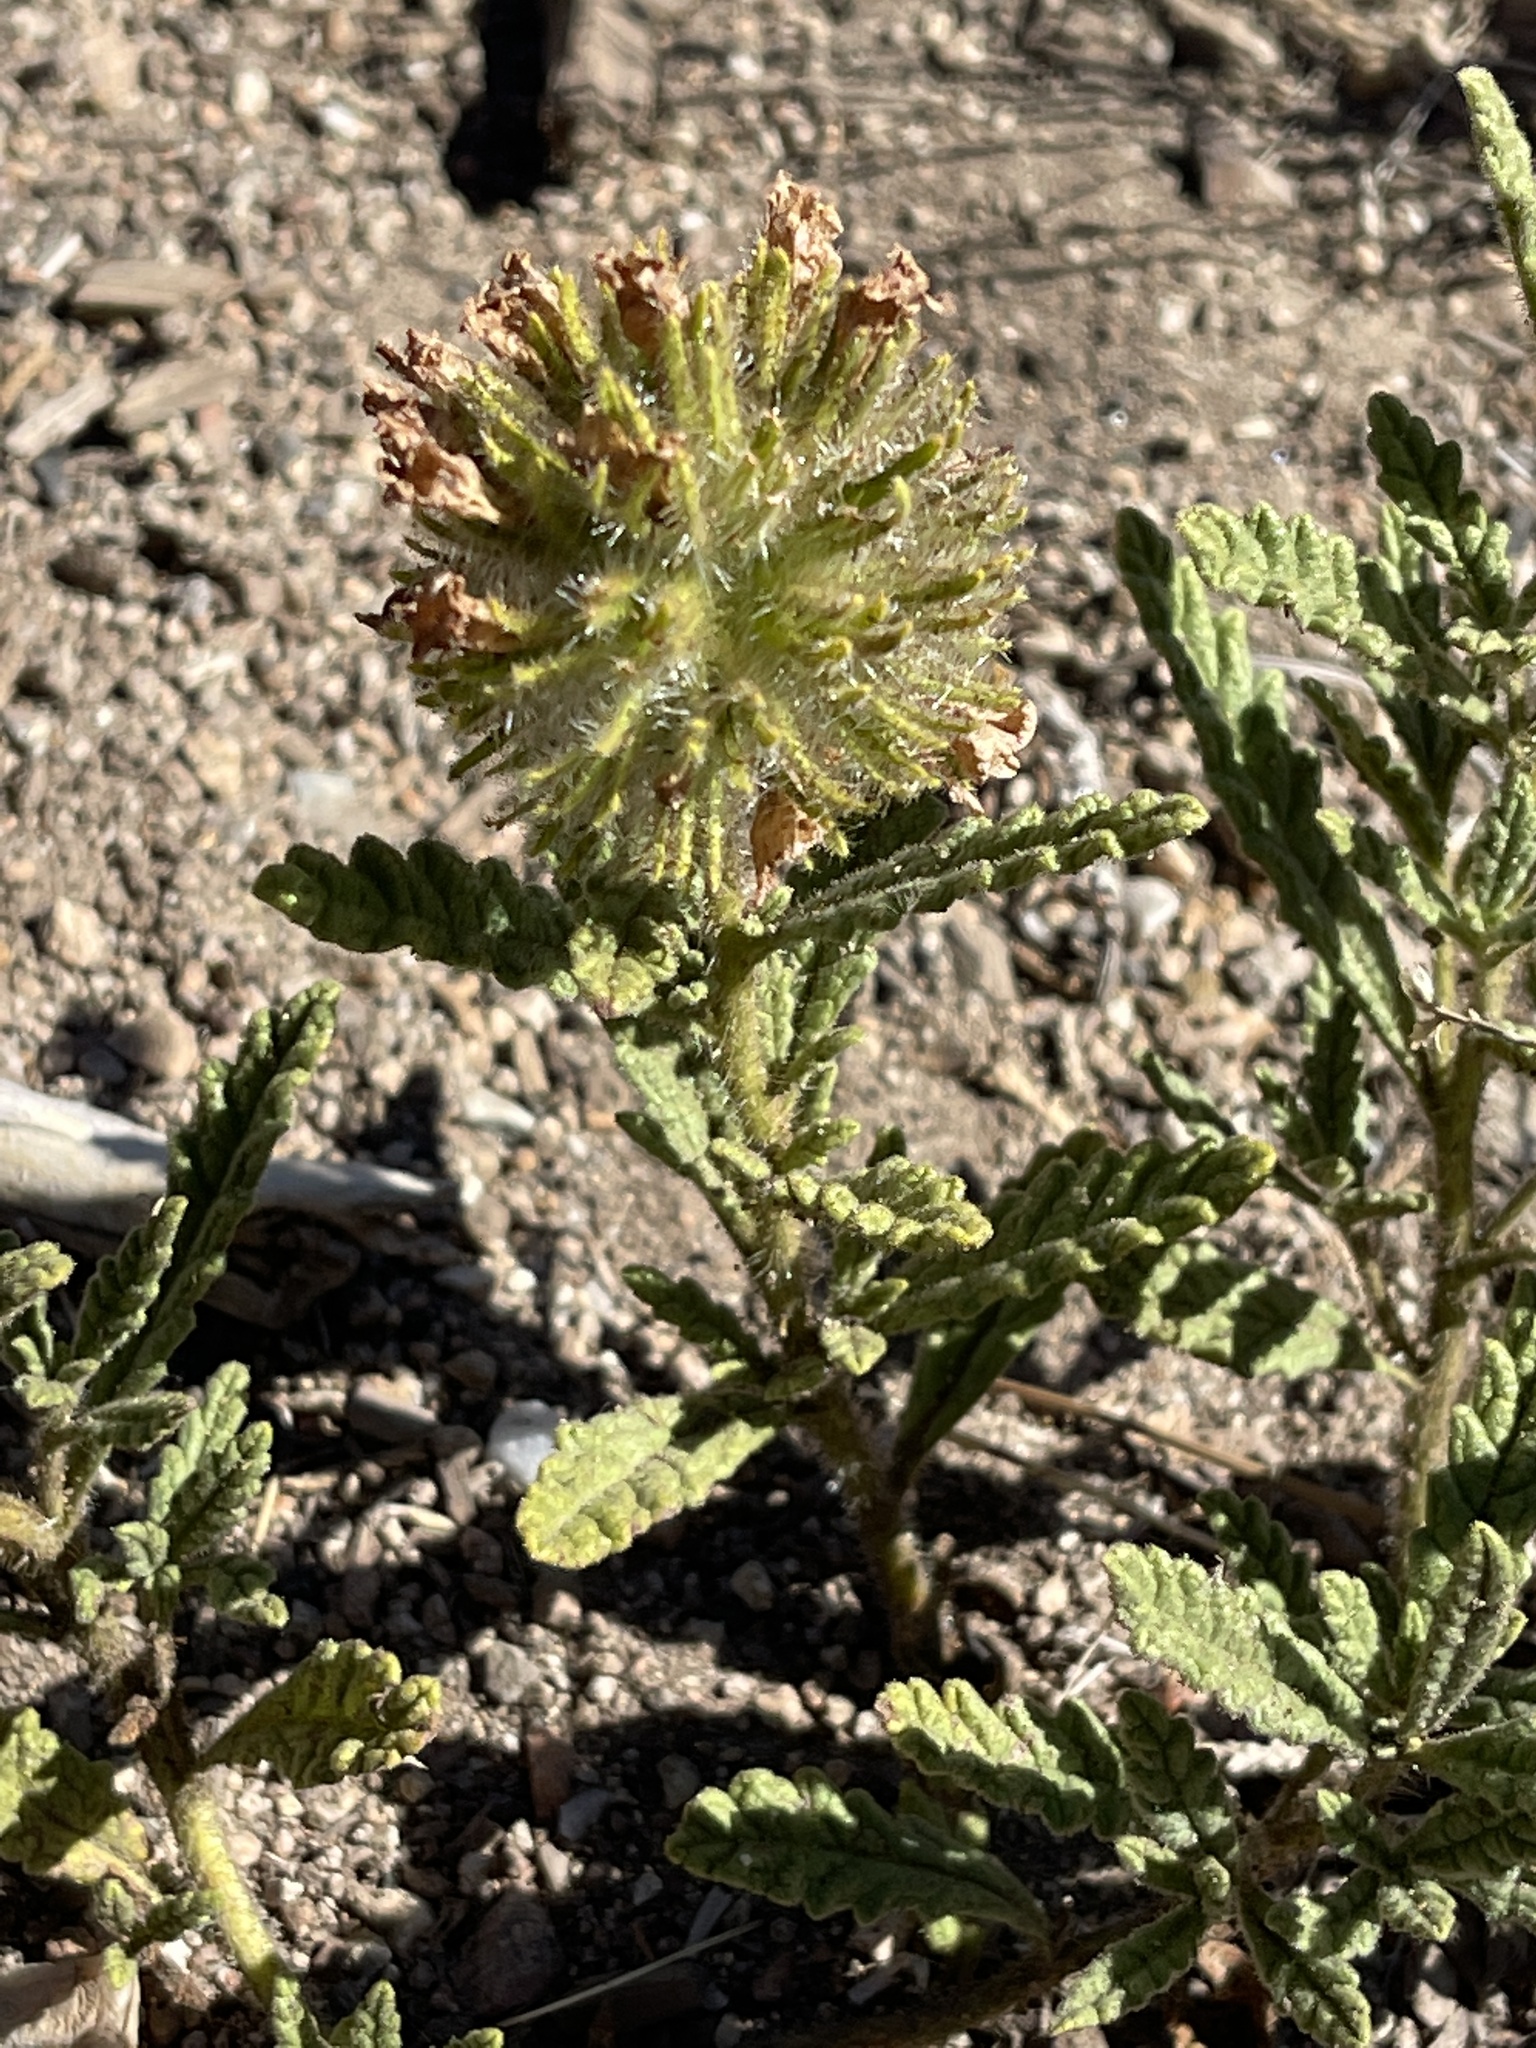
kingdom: Plantae
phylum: Tracheophyta
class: Magnoliopsida
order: Boraginales
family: Namaceae
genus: Nama
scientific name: Nama rothrockii
